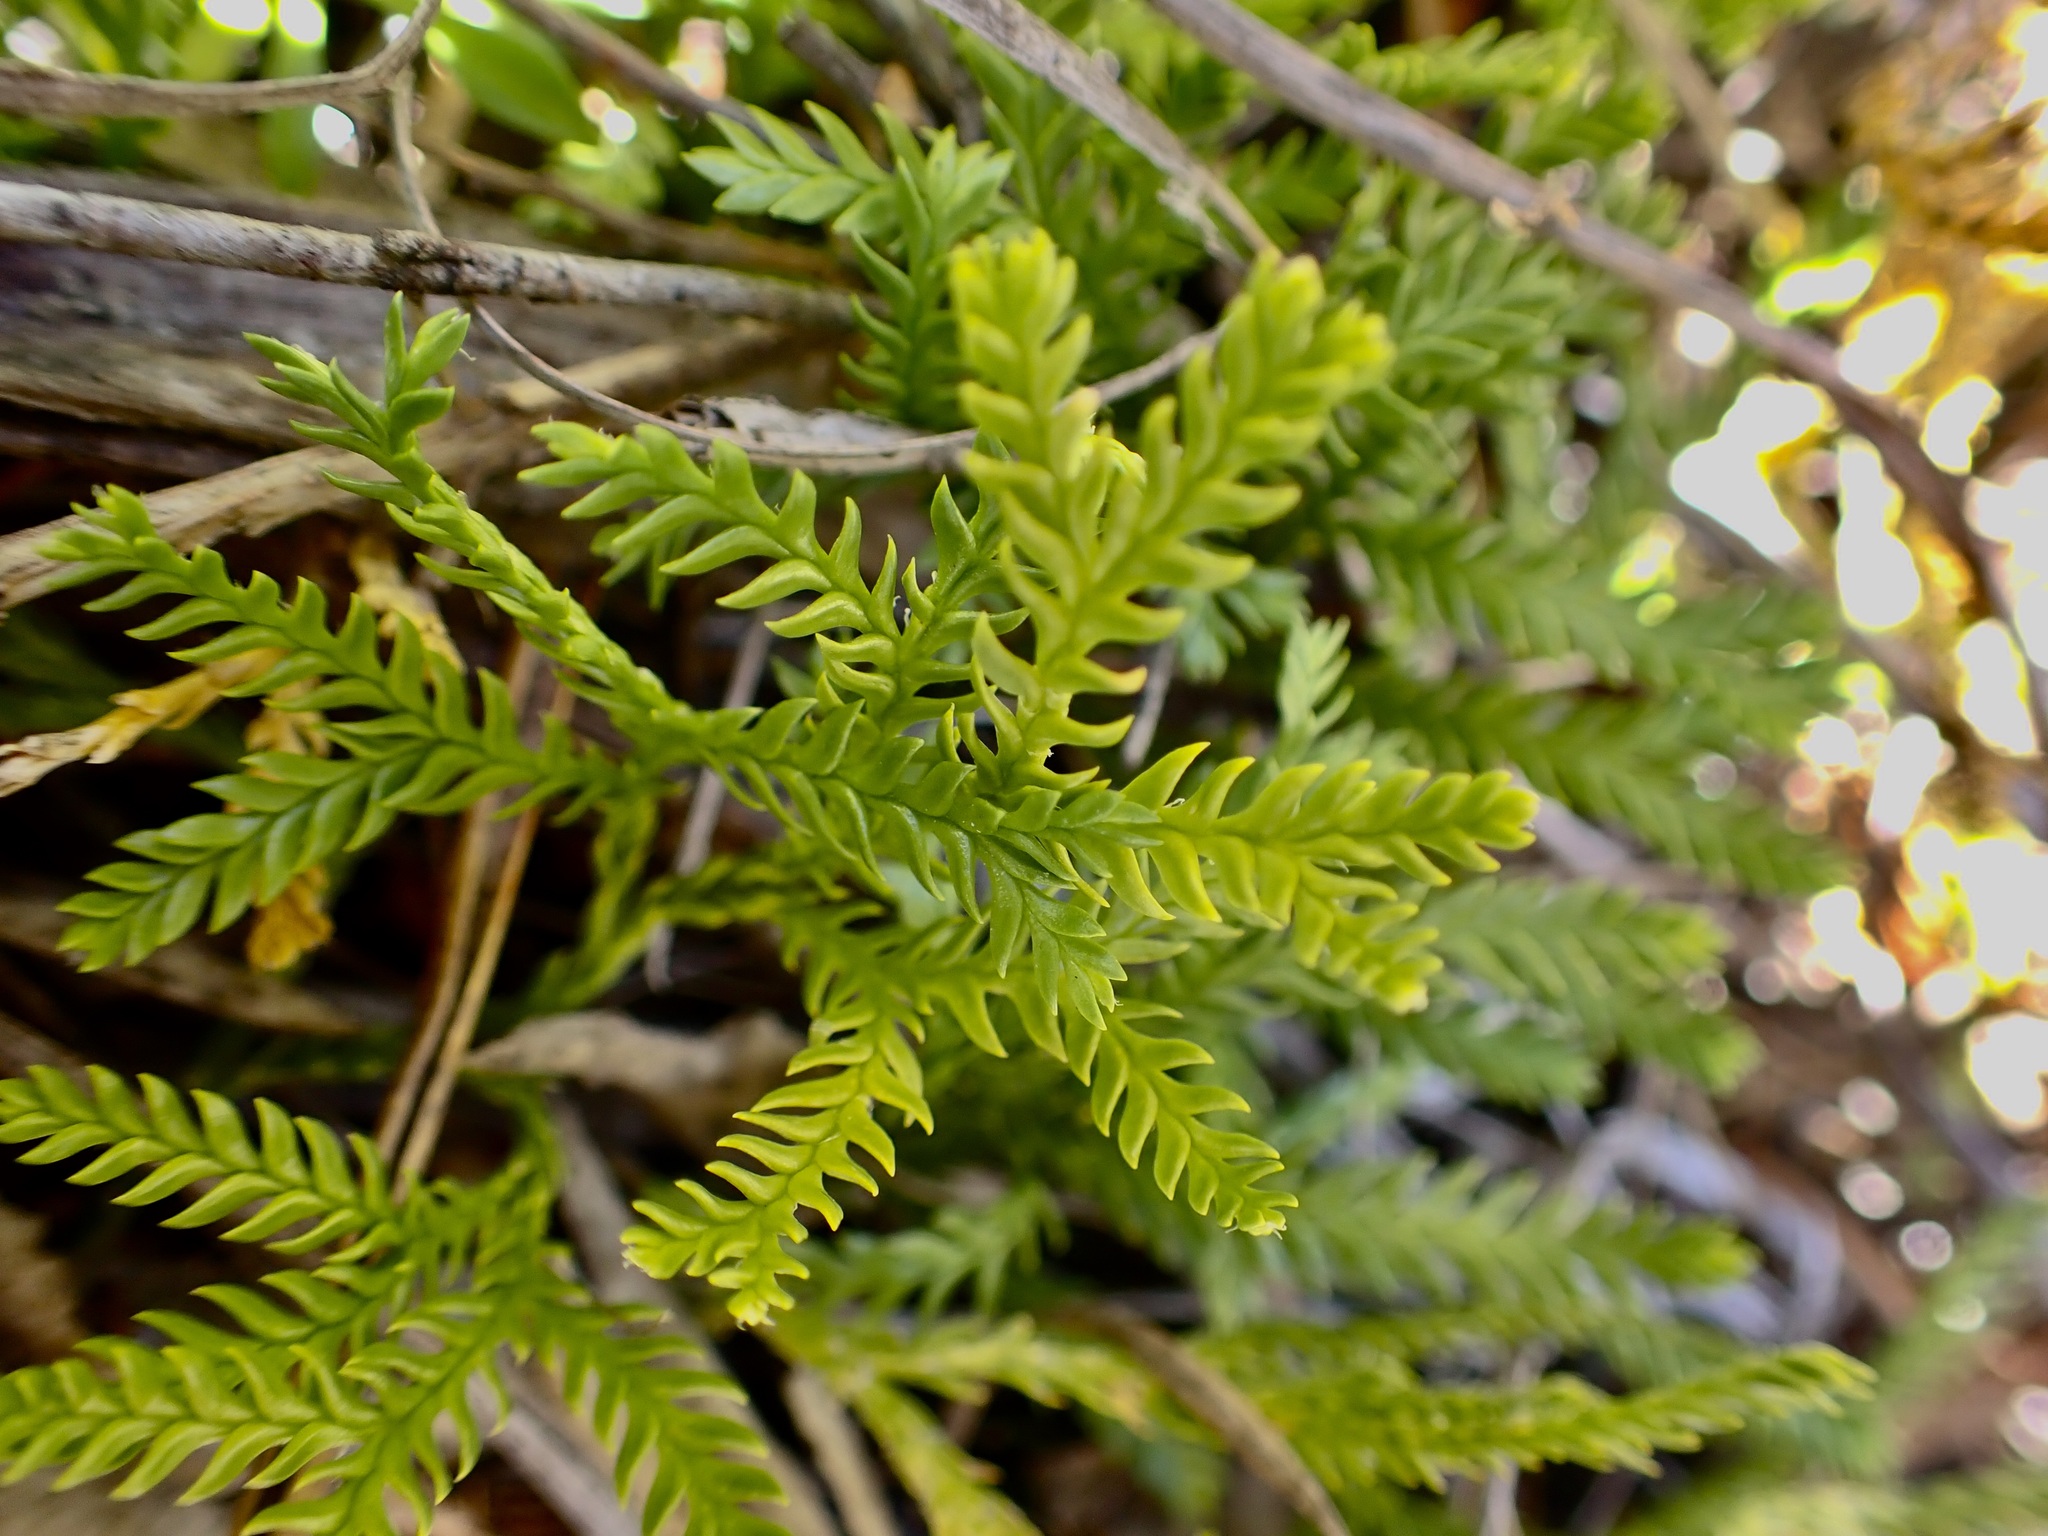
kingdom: Plantae
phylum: Tracheophyta
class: Lycopodiopsida
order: Lycopodiales
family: Lycopodiaceae
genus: Diphasium
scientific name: Diphasium scariosum
